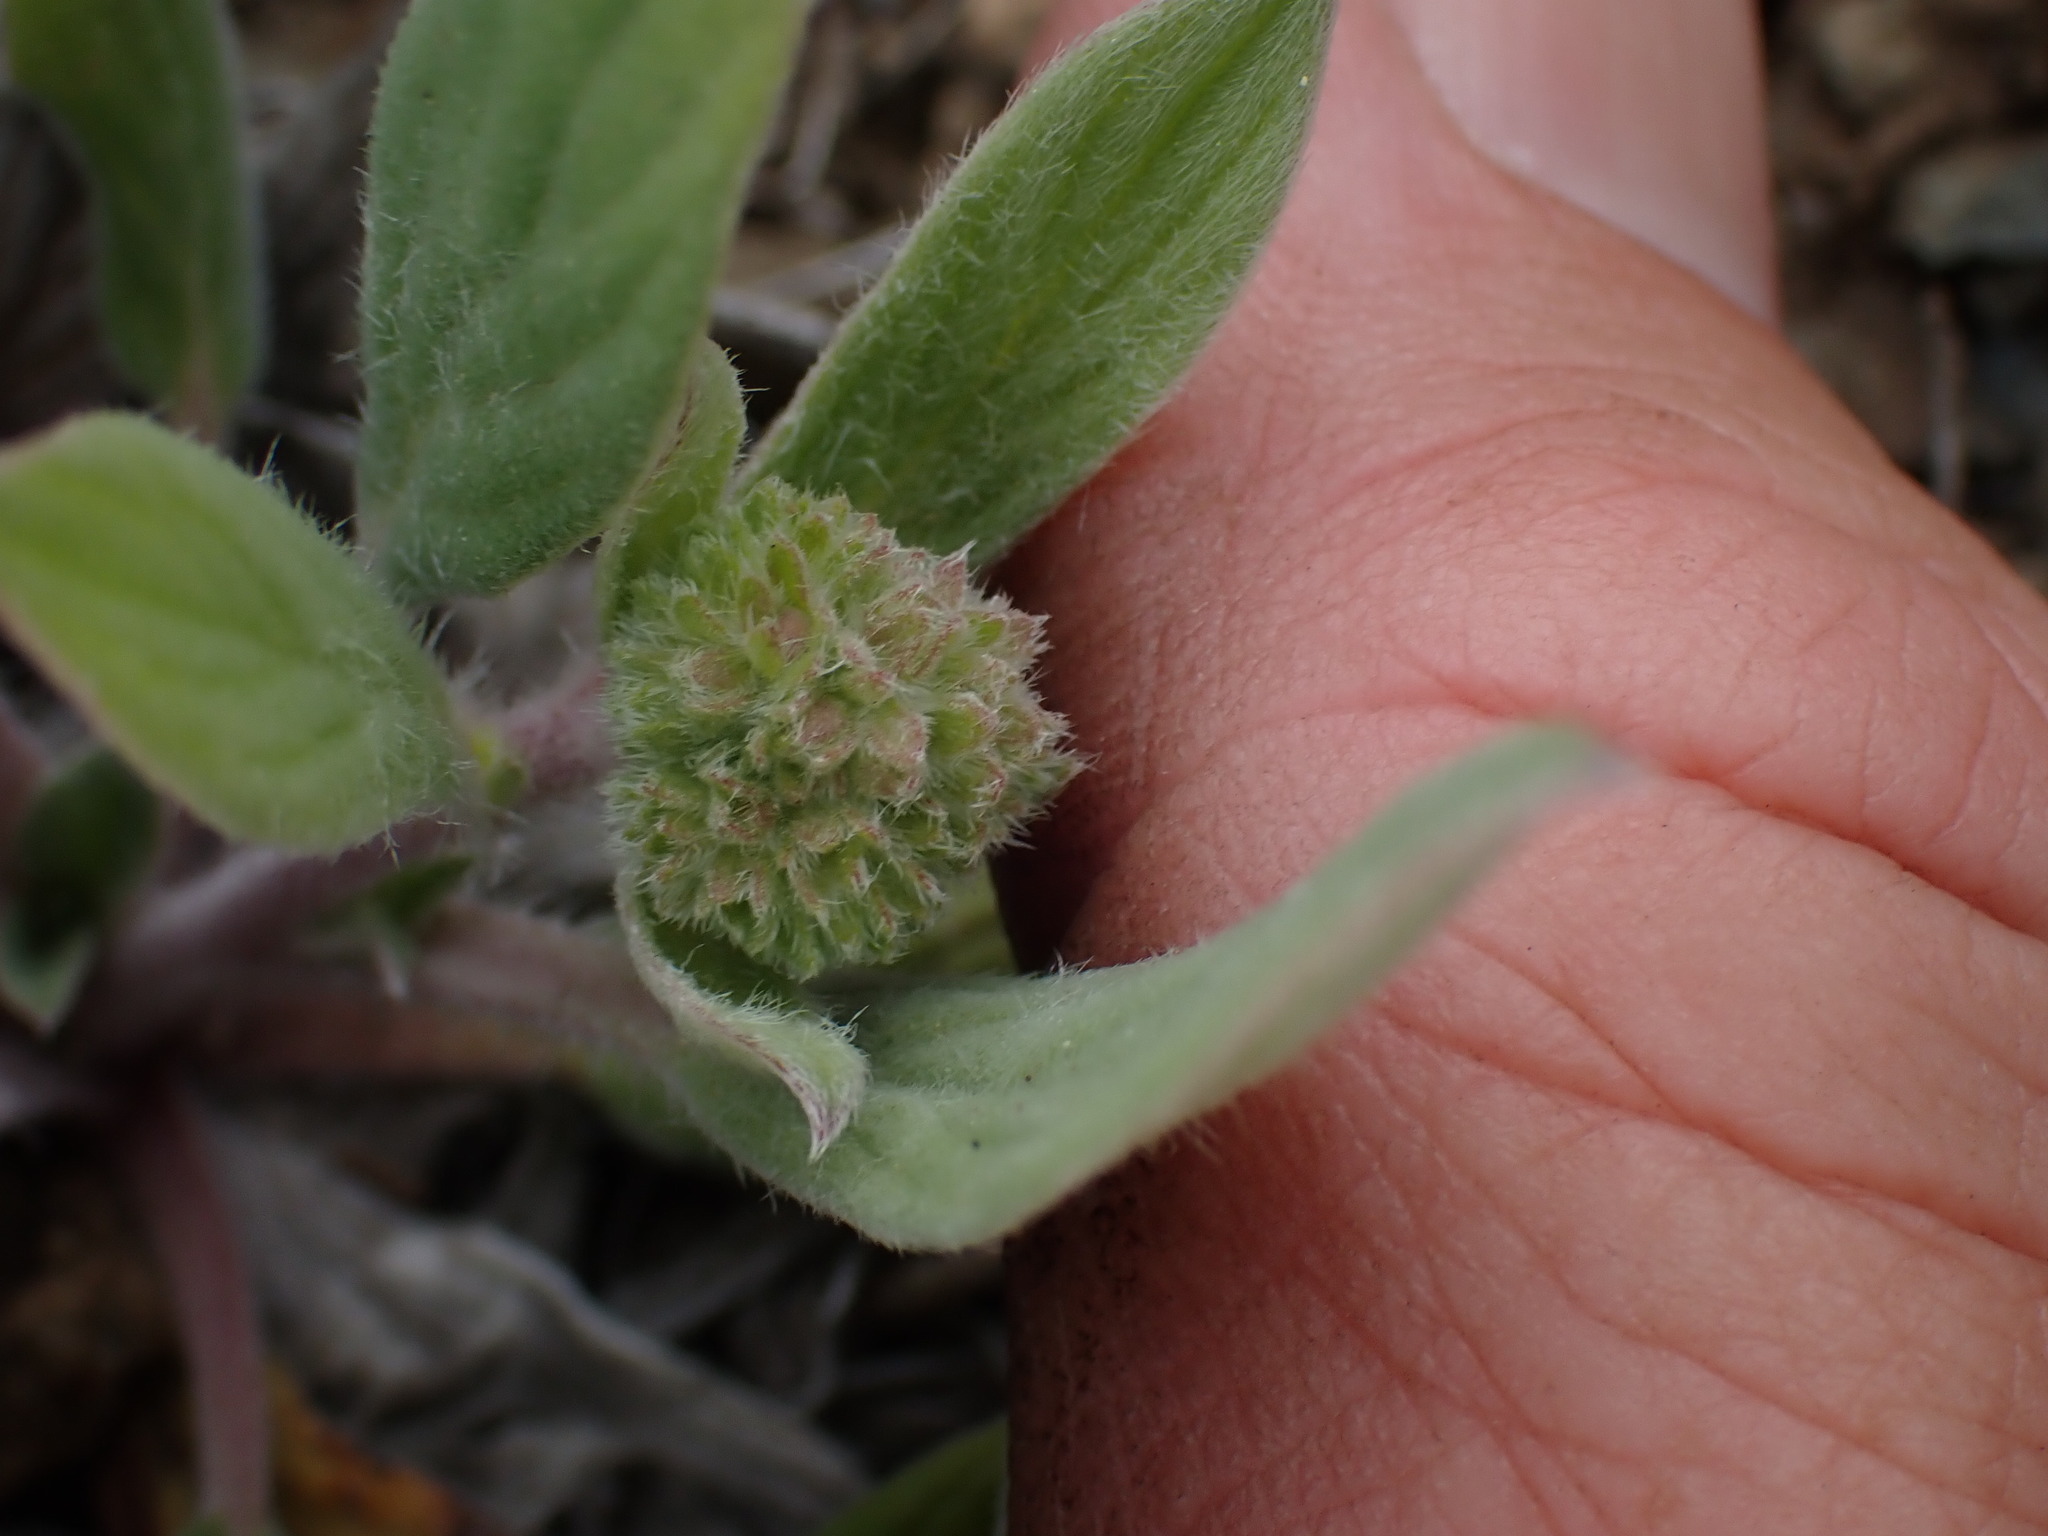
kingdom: Plantae
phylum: Tracheophyta
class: Magnoliopsida
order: Boraginales
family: Hydrophyllaceae
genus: Phacelia
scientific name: Phacelia hastata
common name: Silver-leaved phacelia
